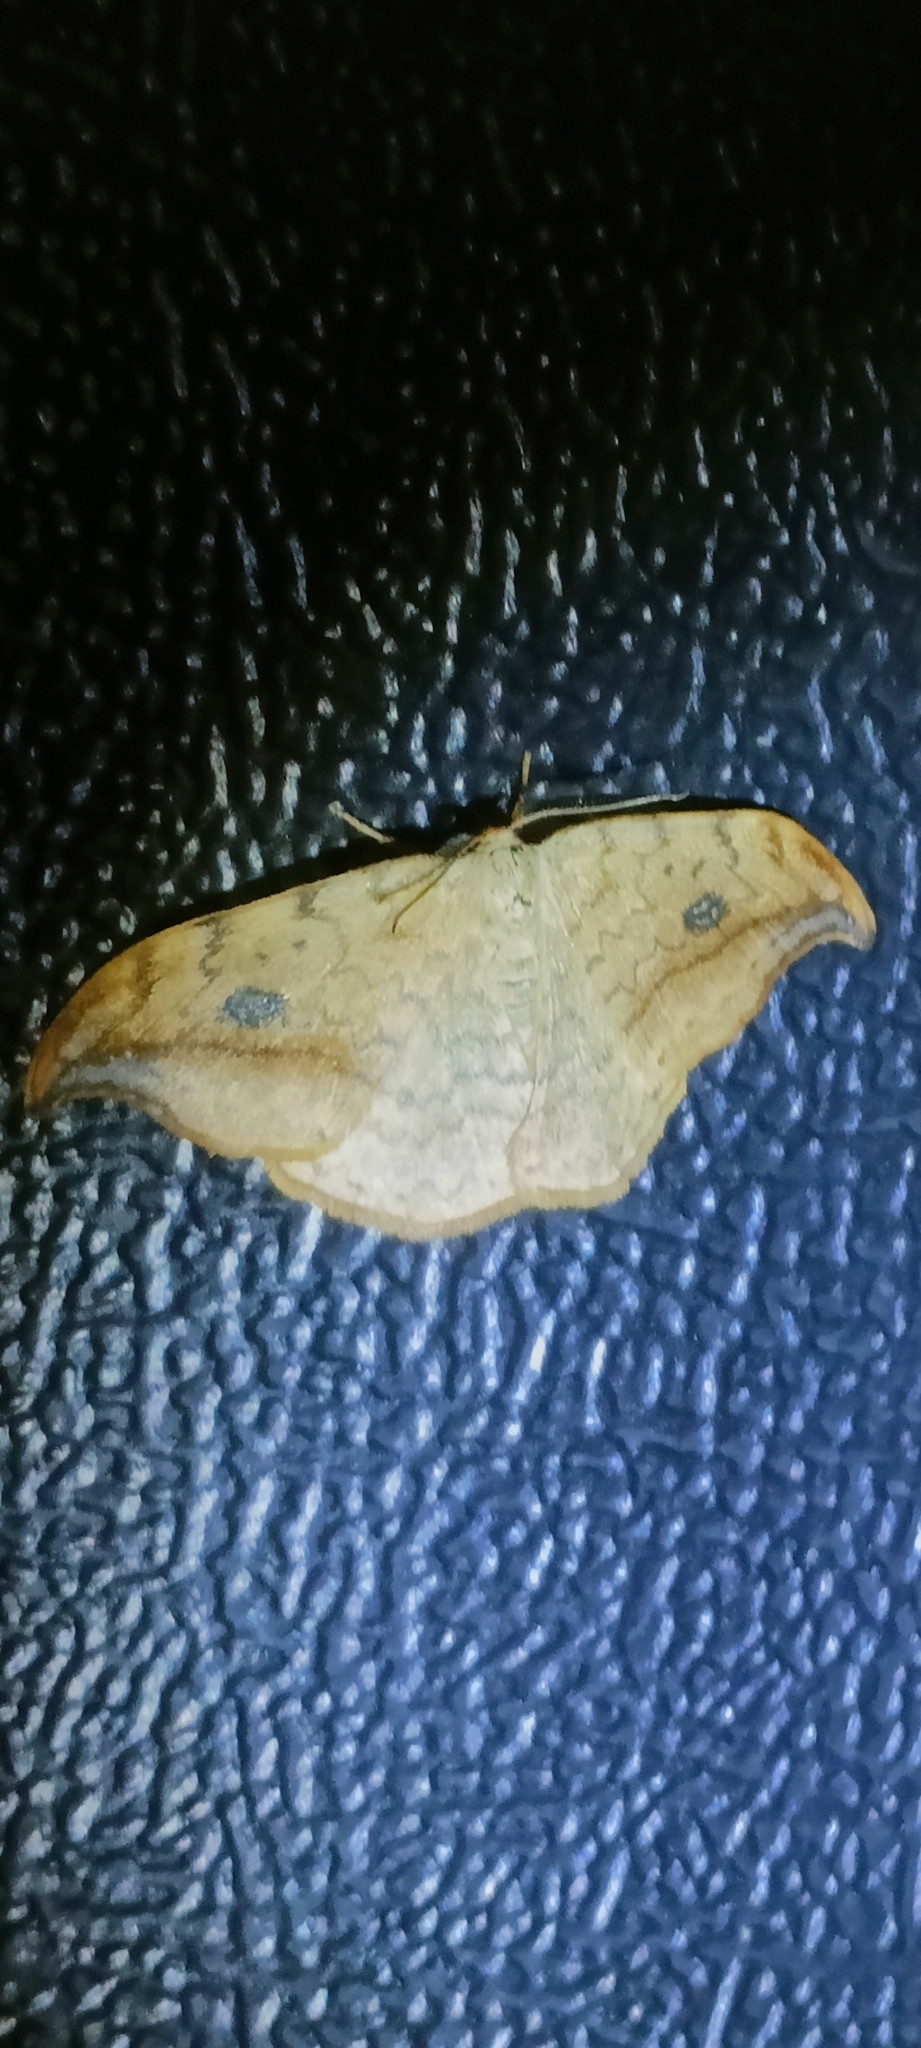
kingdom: Animalia
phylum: Arthropoda
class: Insecta
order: Lepidoptera
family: Drepanidae
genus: Drepana
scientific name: Drepana falcataria
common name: Pebble hook-tip
